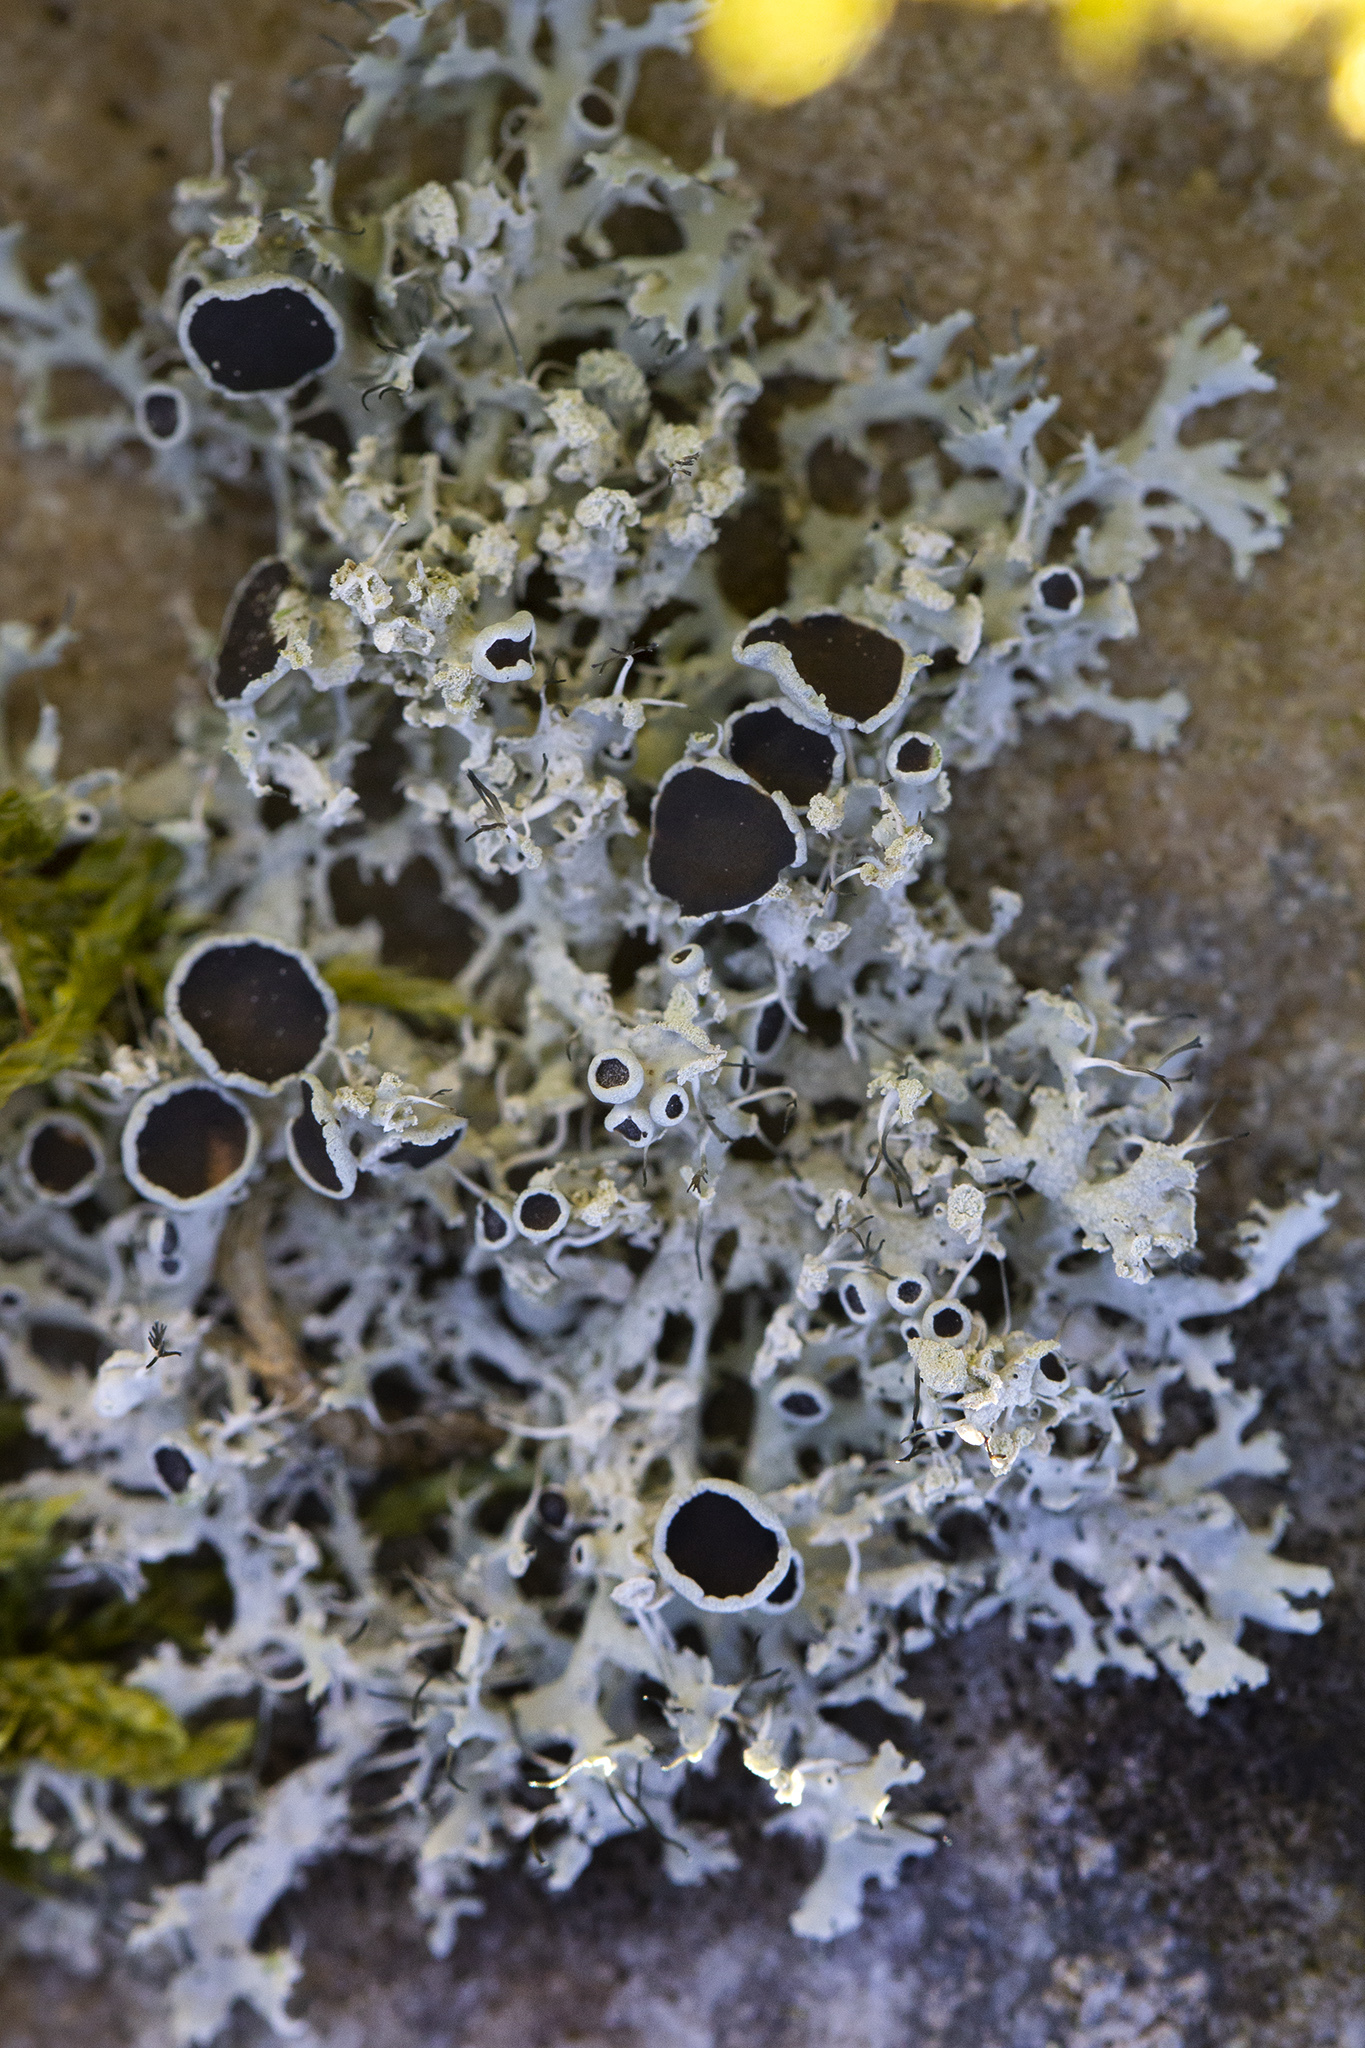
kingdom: Fungi
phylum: Ascomycota
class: Lecanoromycetes
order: Caliciales
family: Physciaceae
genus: Physcia
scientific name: Physcia tenella
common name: Fringed rosette lichen
